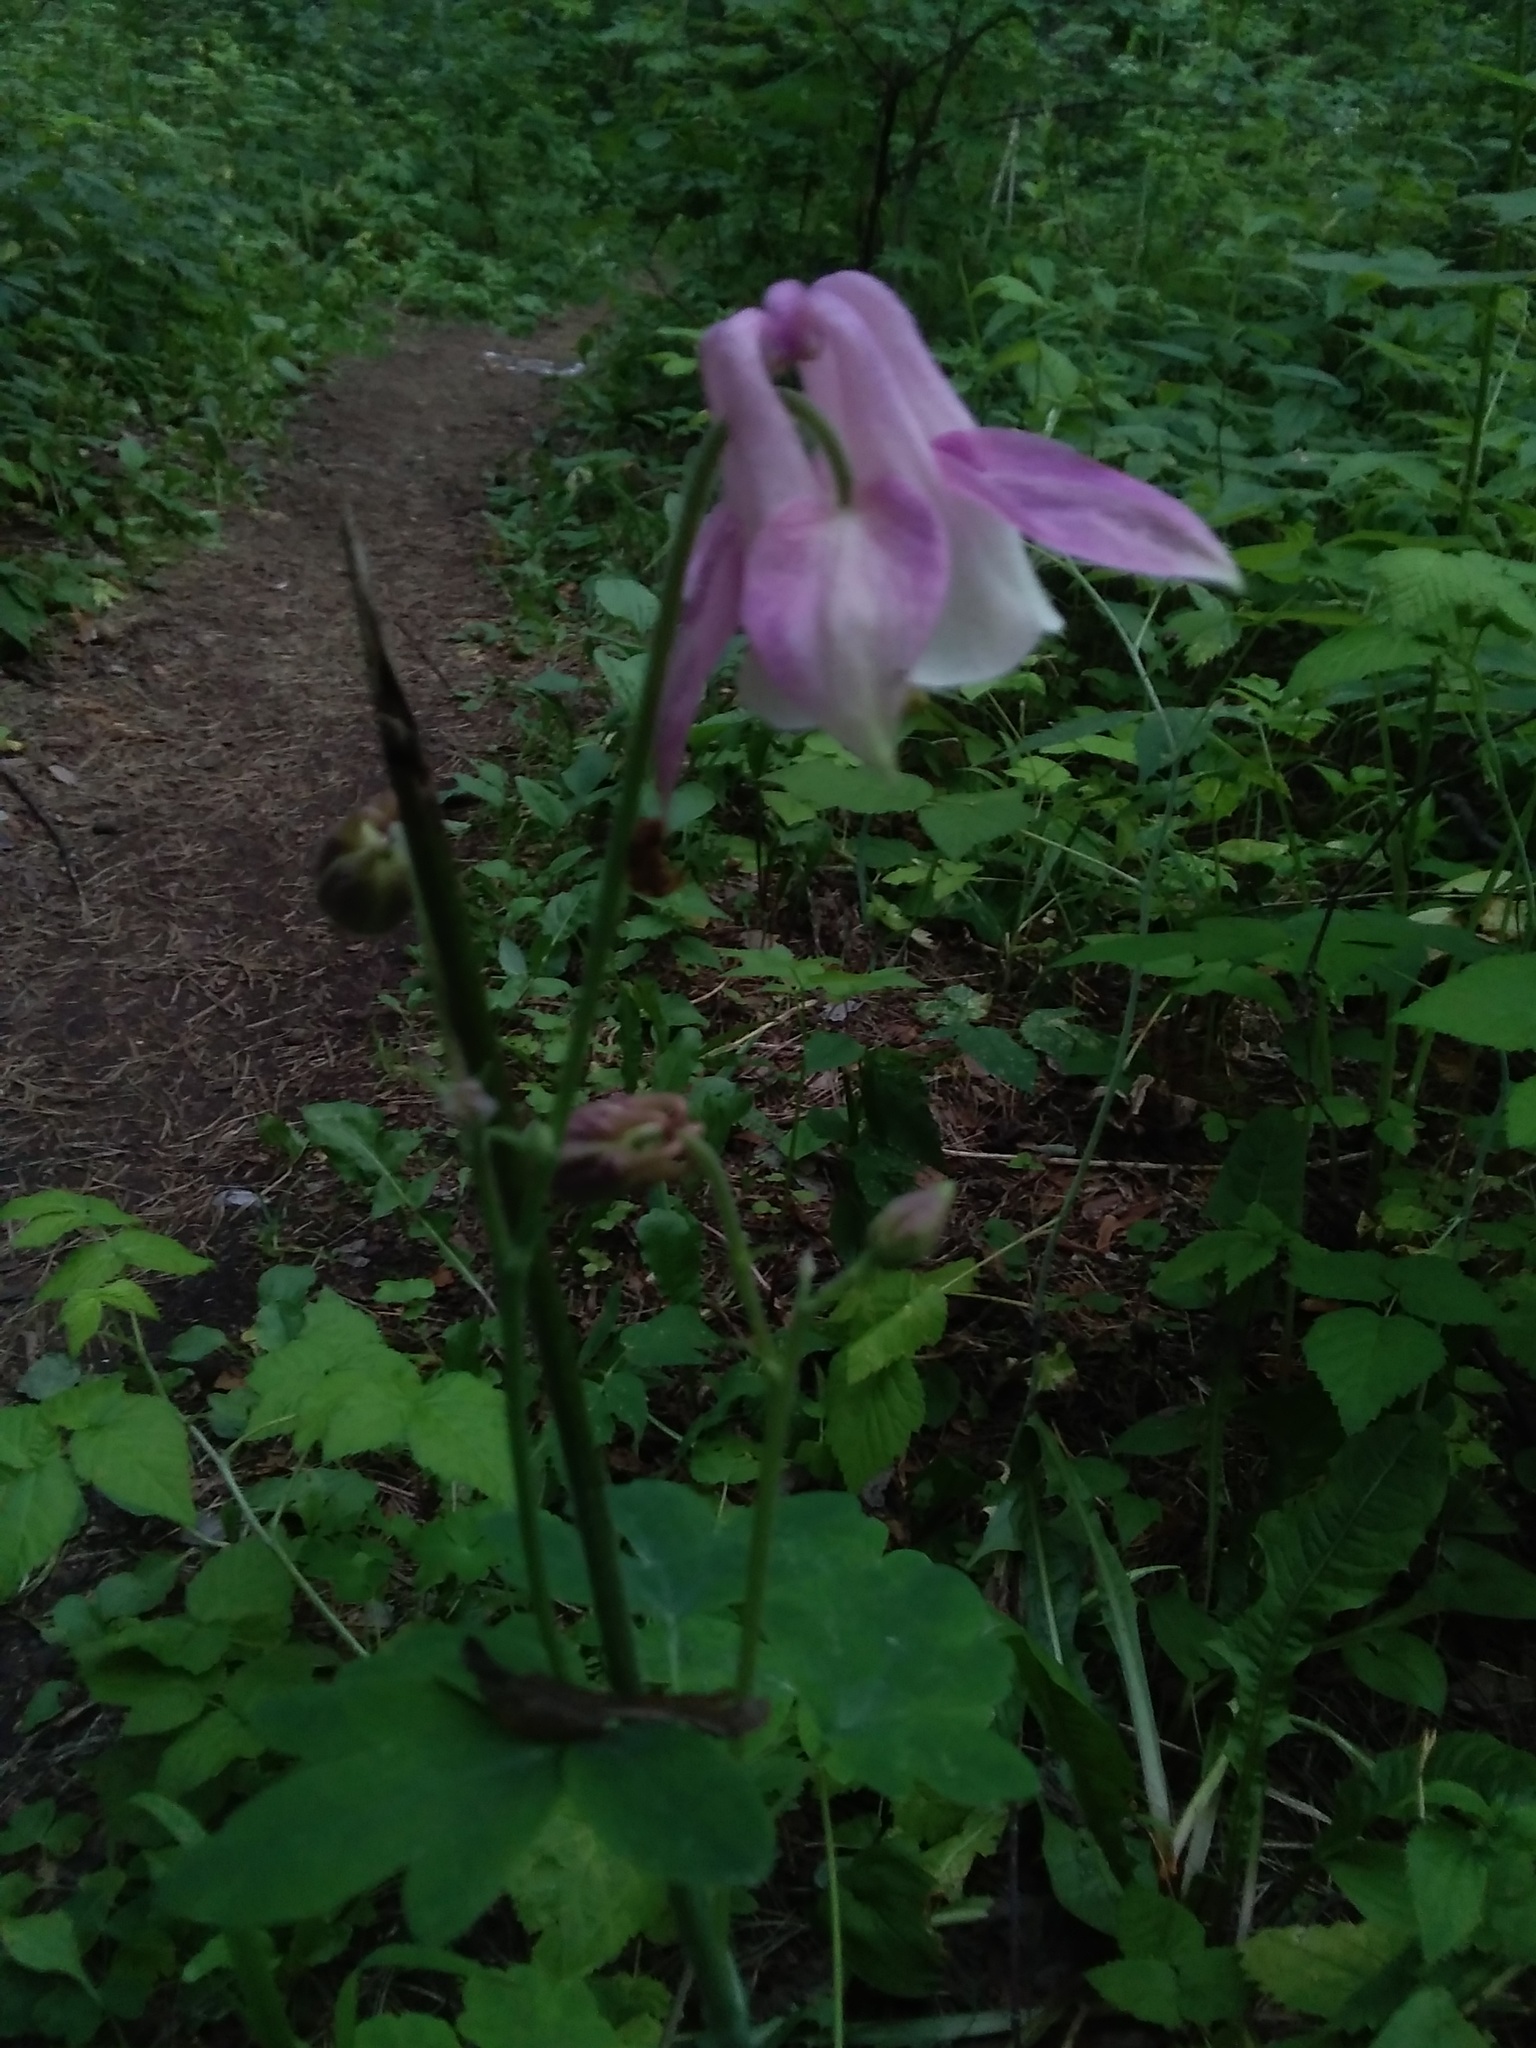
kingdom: Plantae
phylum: Tracheophyta
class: Magnoliopsida
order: Ranunculales
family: Ranunculaceae
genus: Aquilegia
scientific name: Aquilegia vulgaris
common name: Columbine
